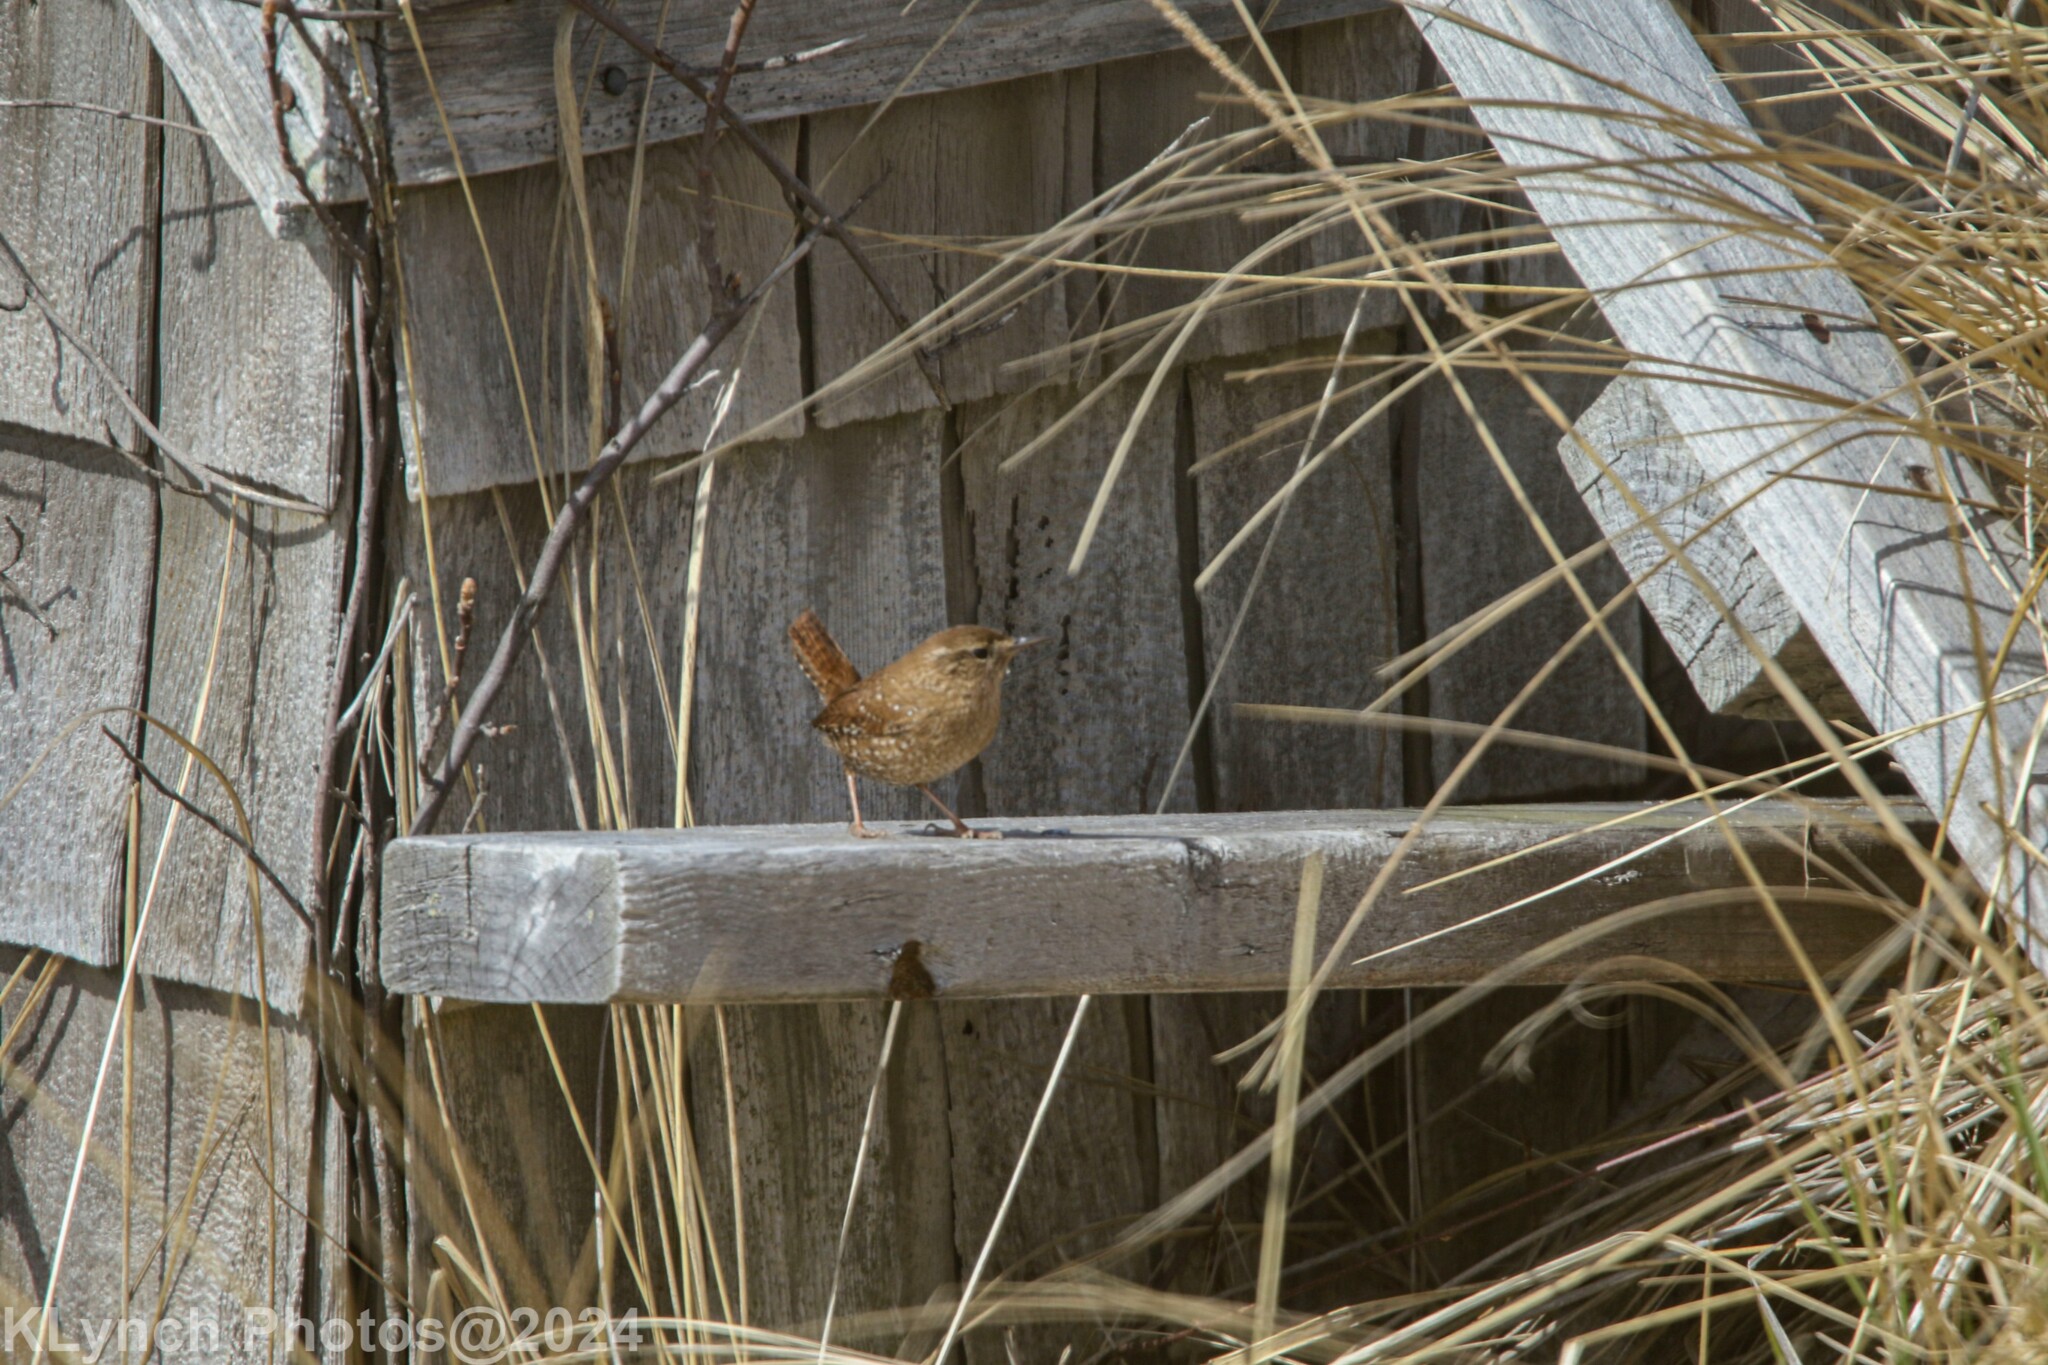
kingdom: Animalia
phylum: Chordata
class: Aves
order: Passeriformes
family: Troglodytidae
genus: Troglodytes
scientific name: Troglodytes hiemalis
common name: Winter wren
